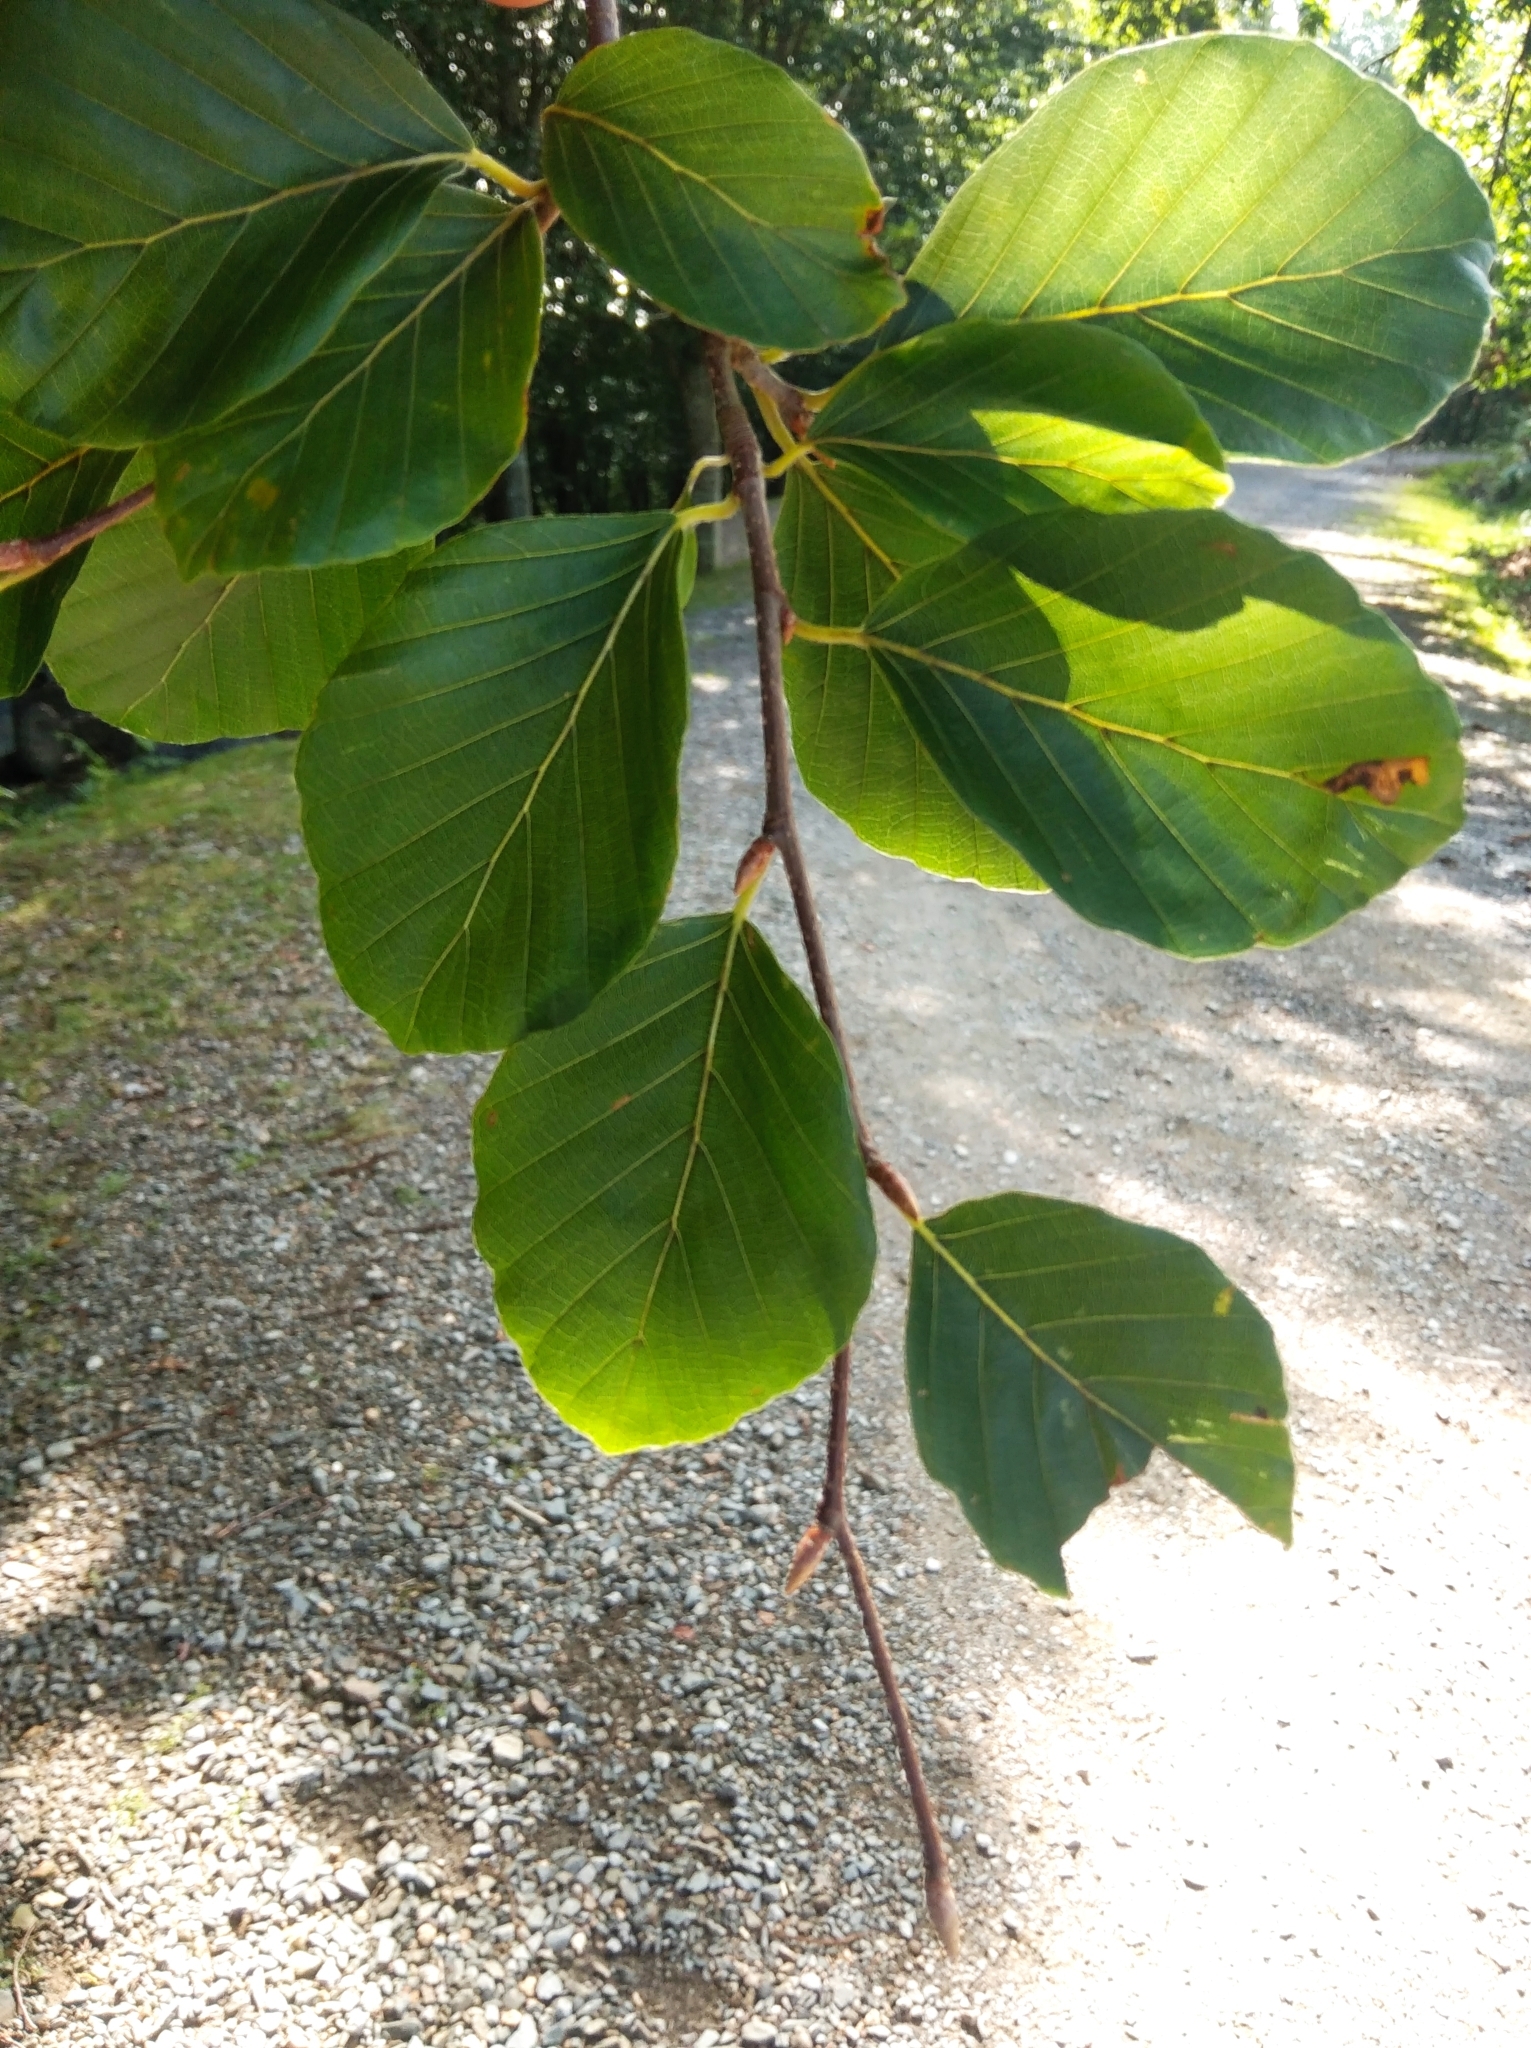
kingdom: Plantae
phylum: Tracheophyta
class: Magnoliopsida
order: Fagales
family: Fagaceae
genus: Fagus
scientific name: Fagus sylvatica
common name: Beech
